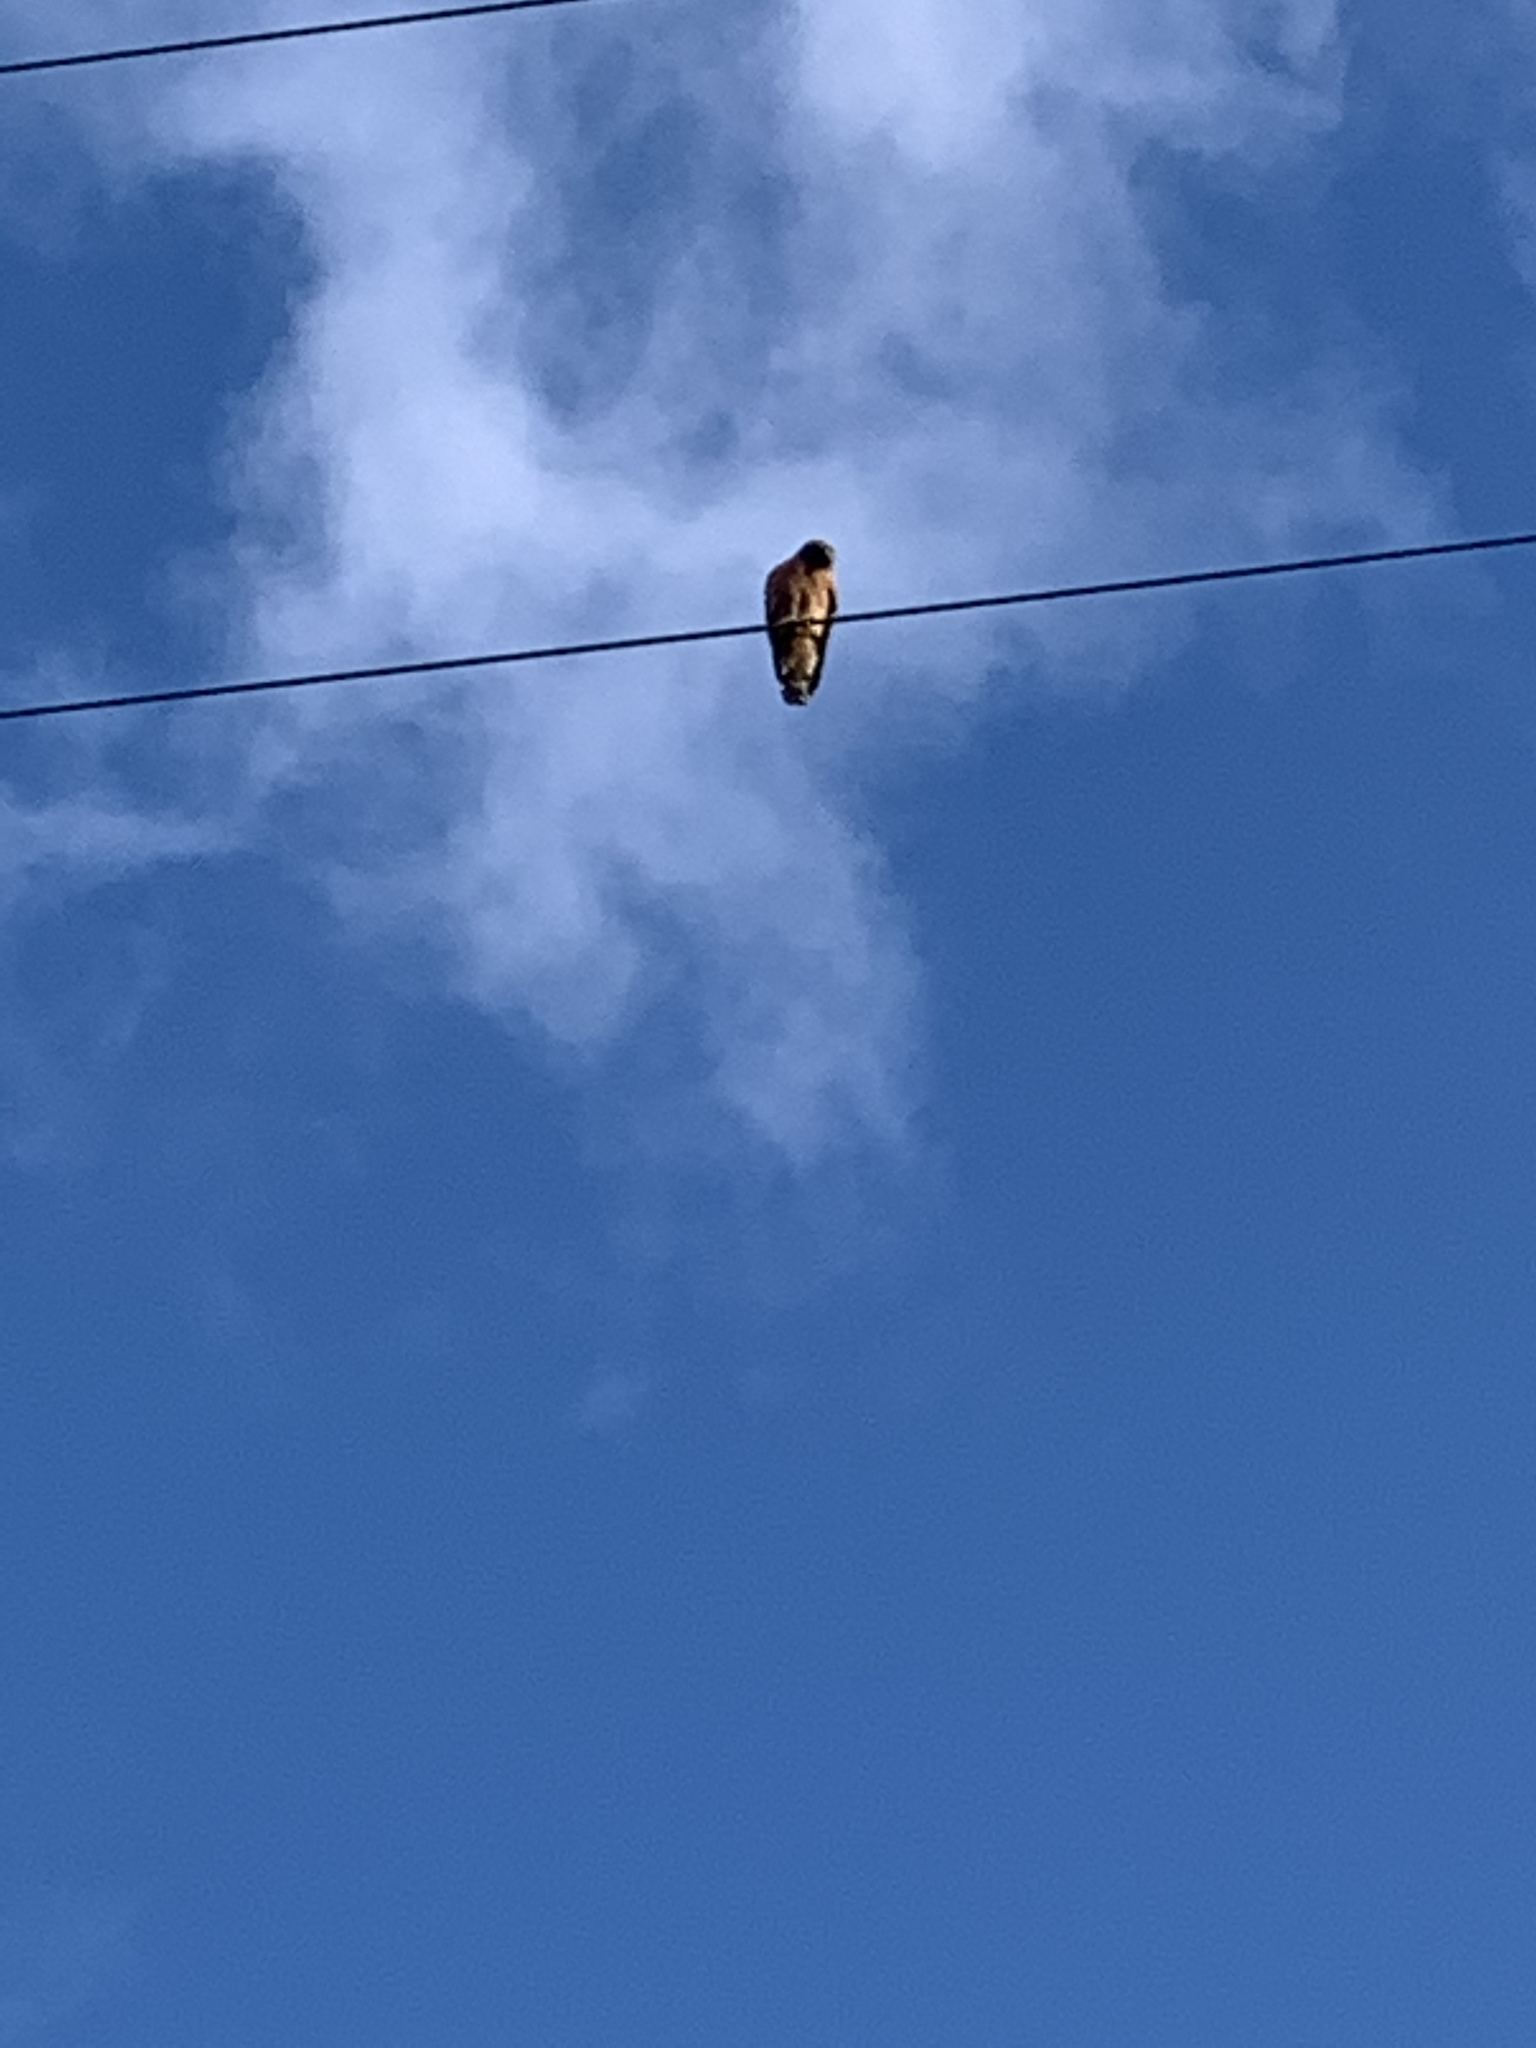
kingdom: Animalia
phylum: Chordata
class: Aves
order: Accipitriformes
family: Accipitridae
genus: Buteo
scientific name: Buteo lineatus
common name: Red-shouldered hawk
